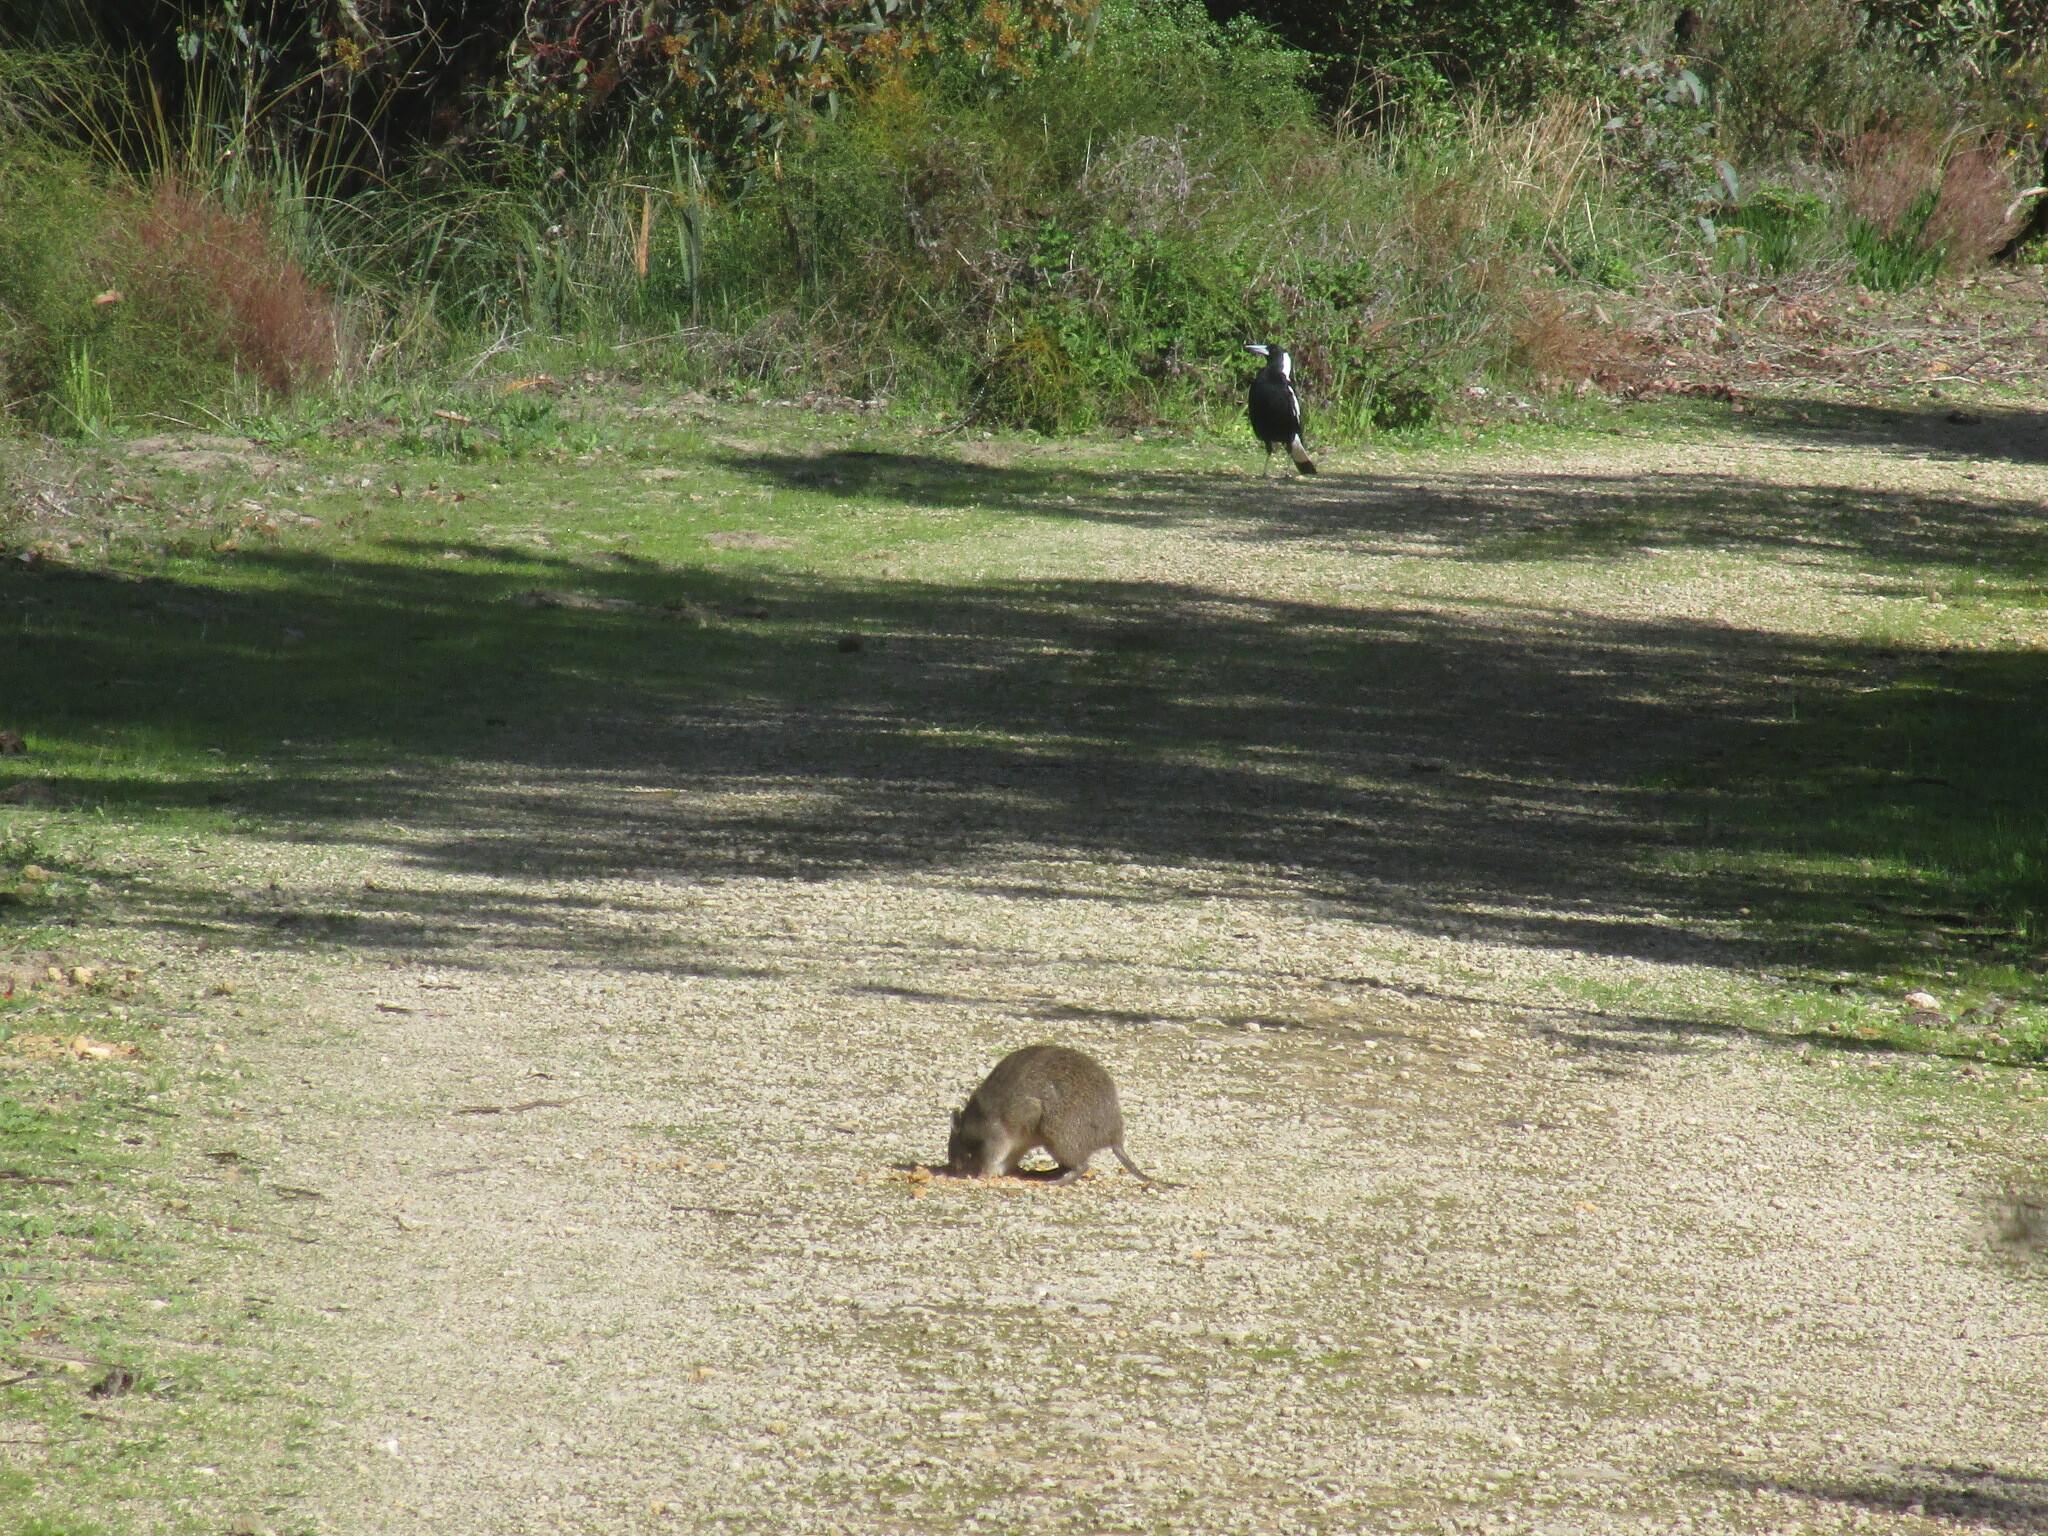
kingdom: Animalia
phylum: Chordata
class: Mammalia
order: Peramelemorphia
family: Peramelidae
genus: Isoodon
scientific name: Isoodon fusciventer
